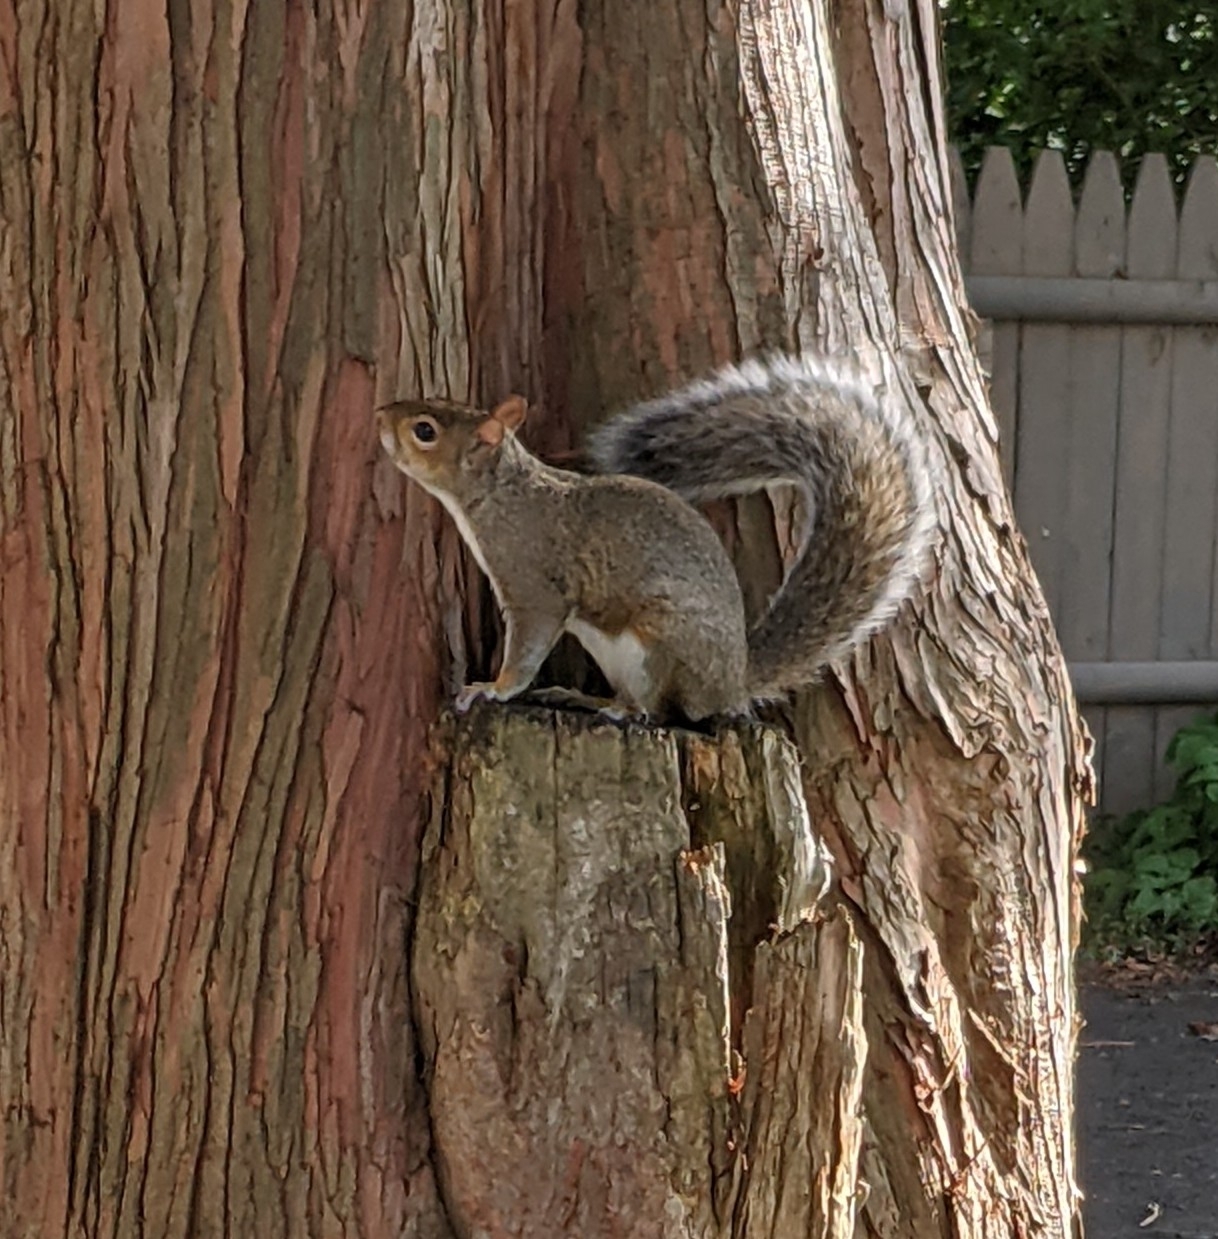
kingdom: Animalia
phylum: Chordata
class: Mammalia
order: Rodentia
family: Sciuridae
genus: Sciurus
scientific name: Sciurus carolinensis
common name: Eastern gray squirrel
